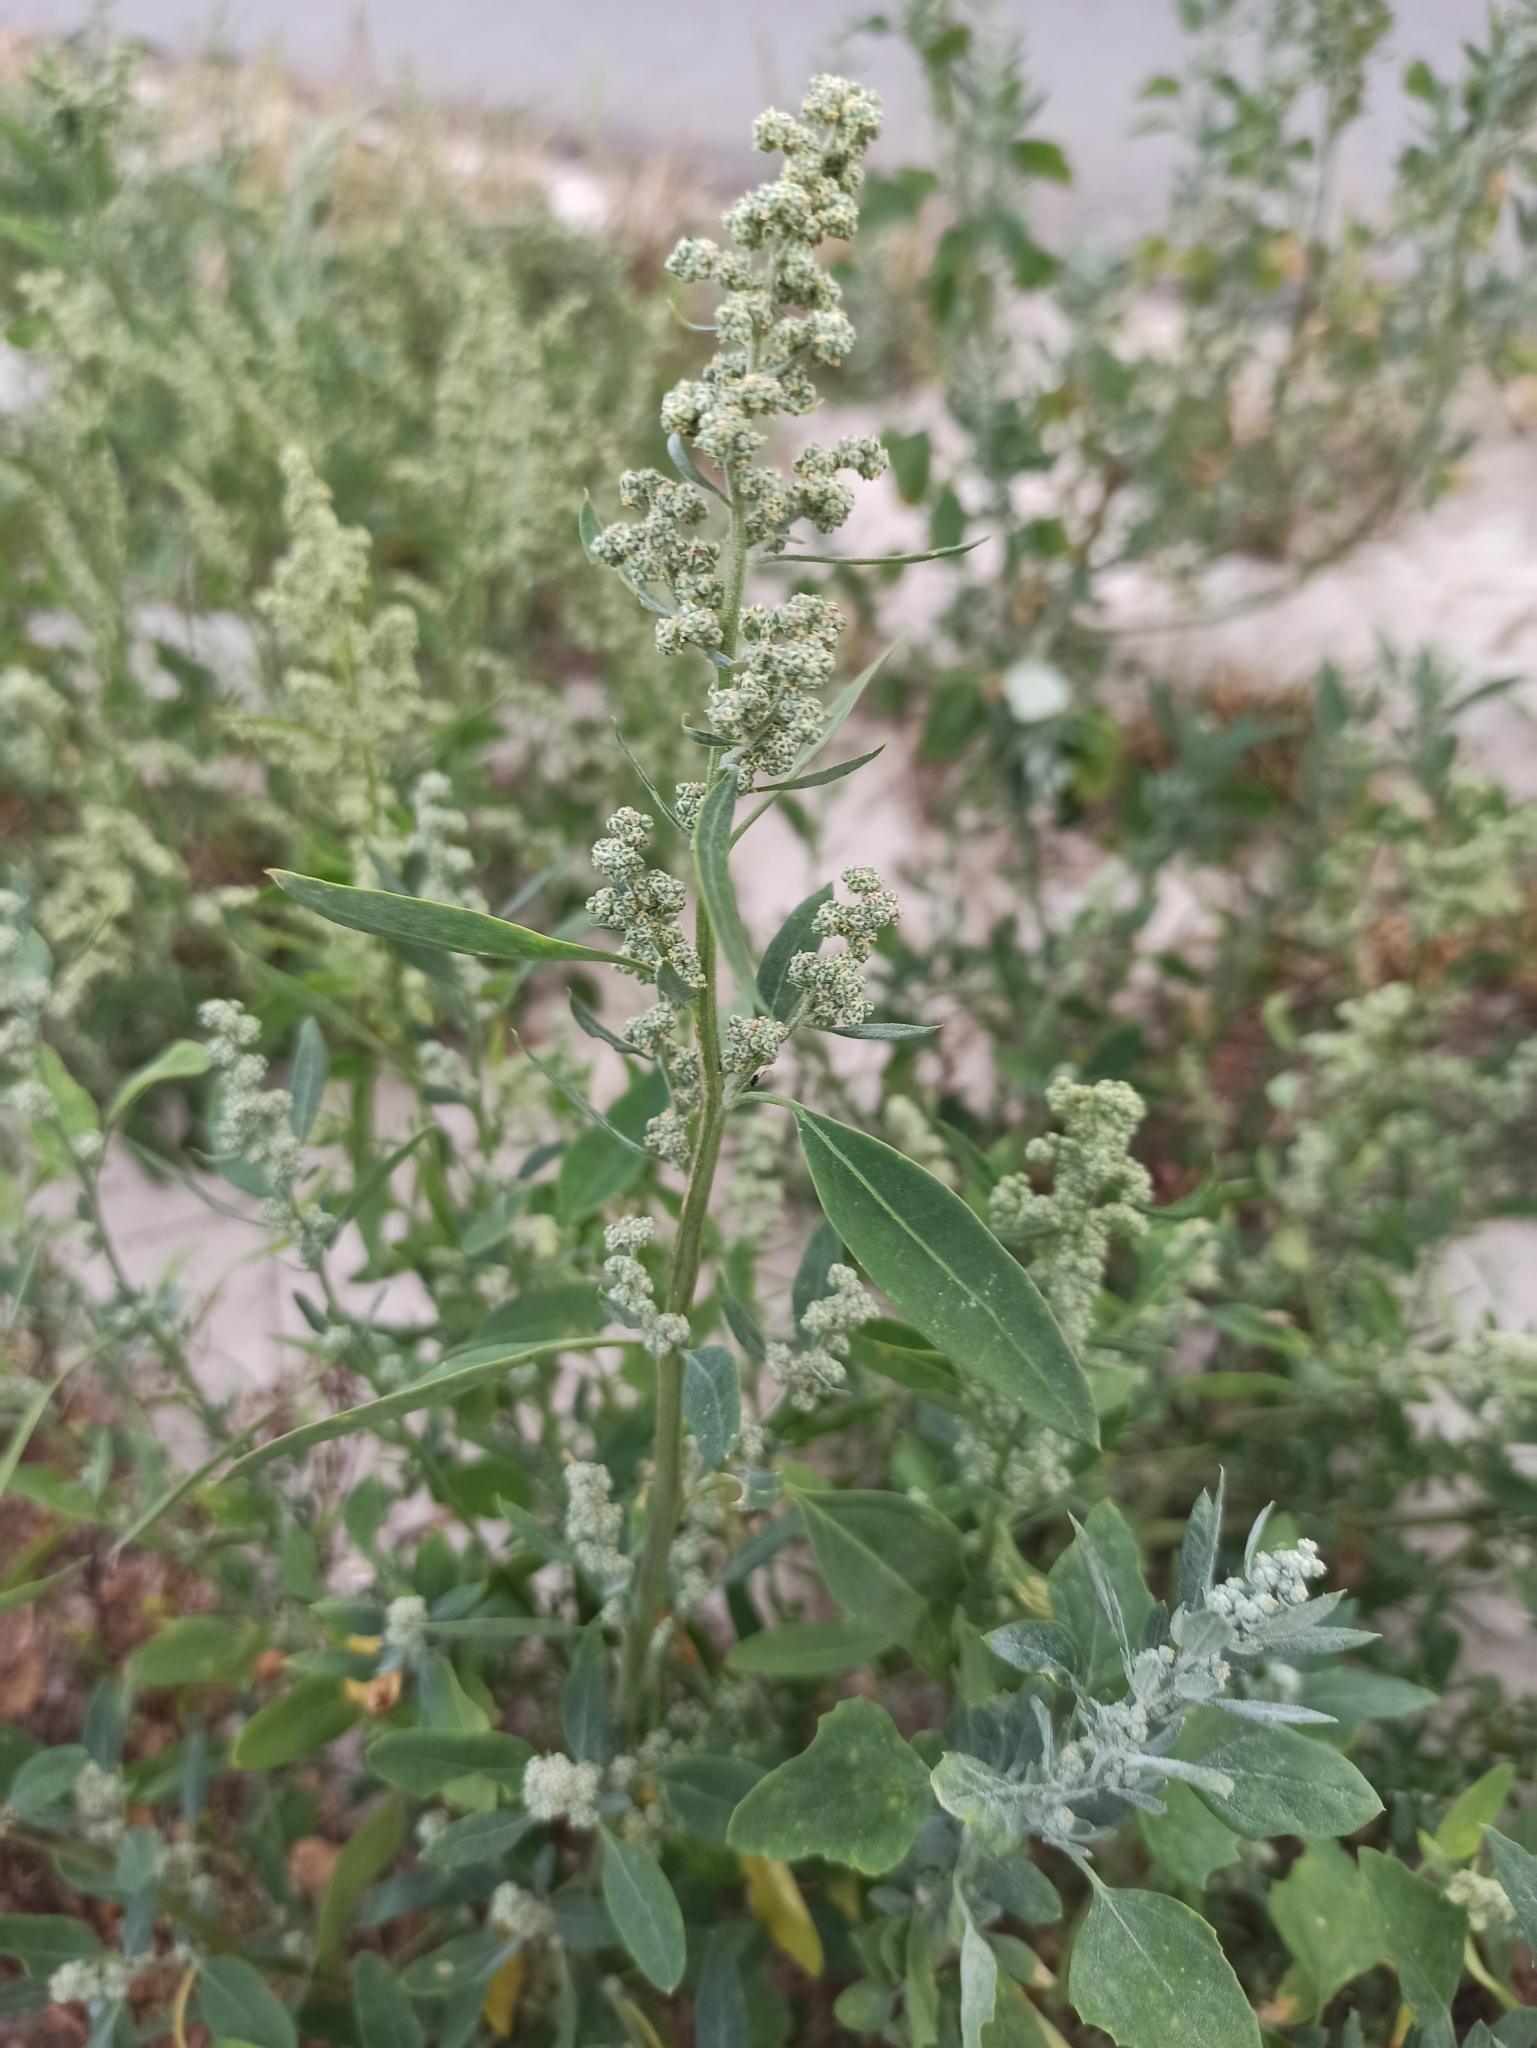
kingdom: Plantae
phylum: Tracheophyta
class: Magnoliopsida
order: Caryophyllales
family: Amaranthaceae
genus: Chenopodium
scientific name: Chenopodium album
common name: Fat-hen
